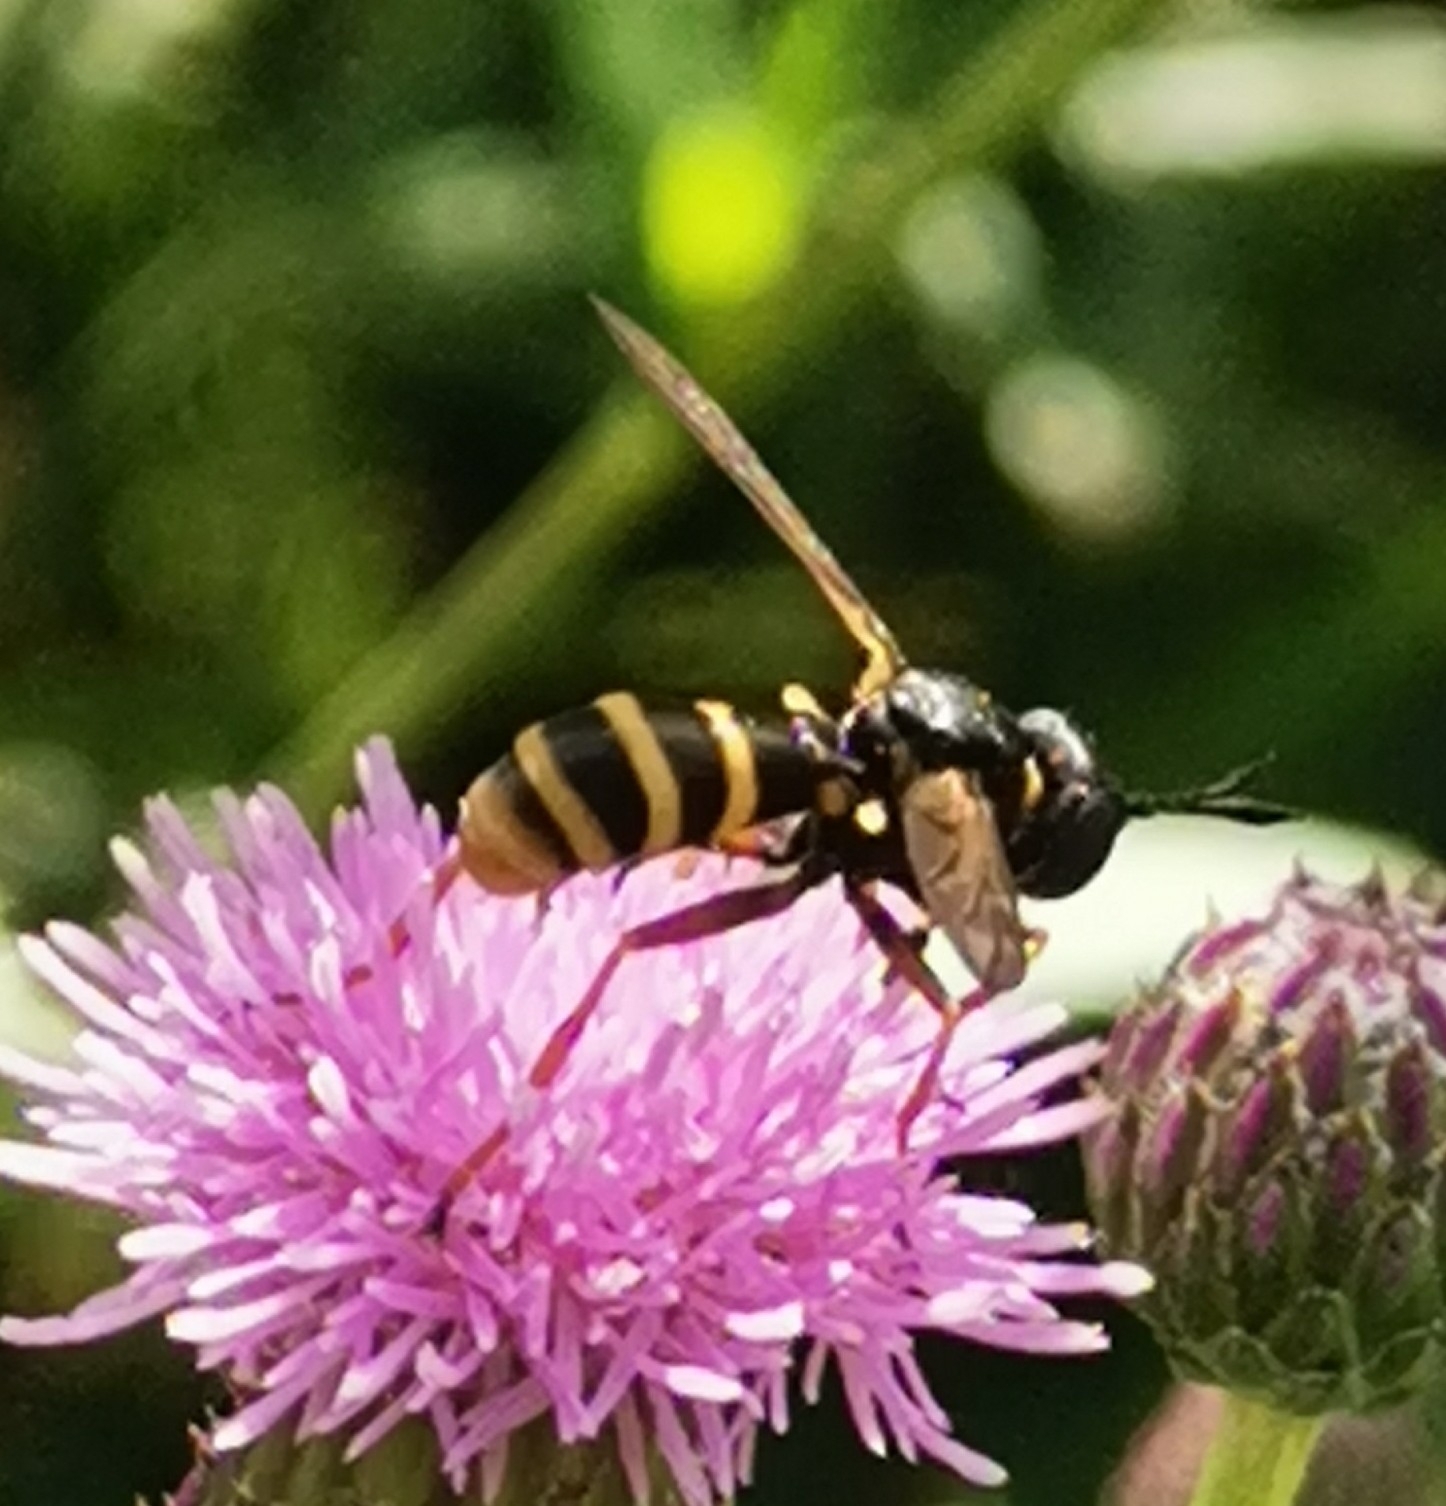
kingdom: Animalia
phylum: Arthropoda
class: Insecta
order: Diptera
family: Conopidae
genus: Conops
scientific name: Conops quadrifasciatus
